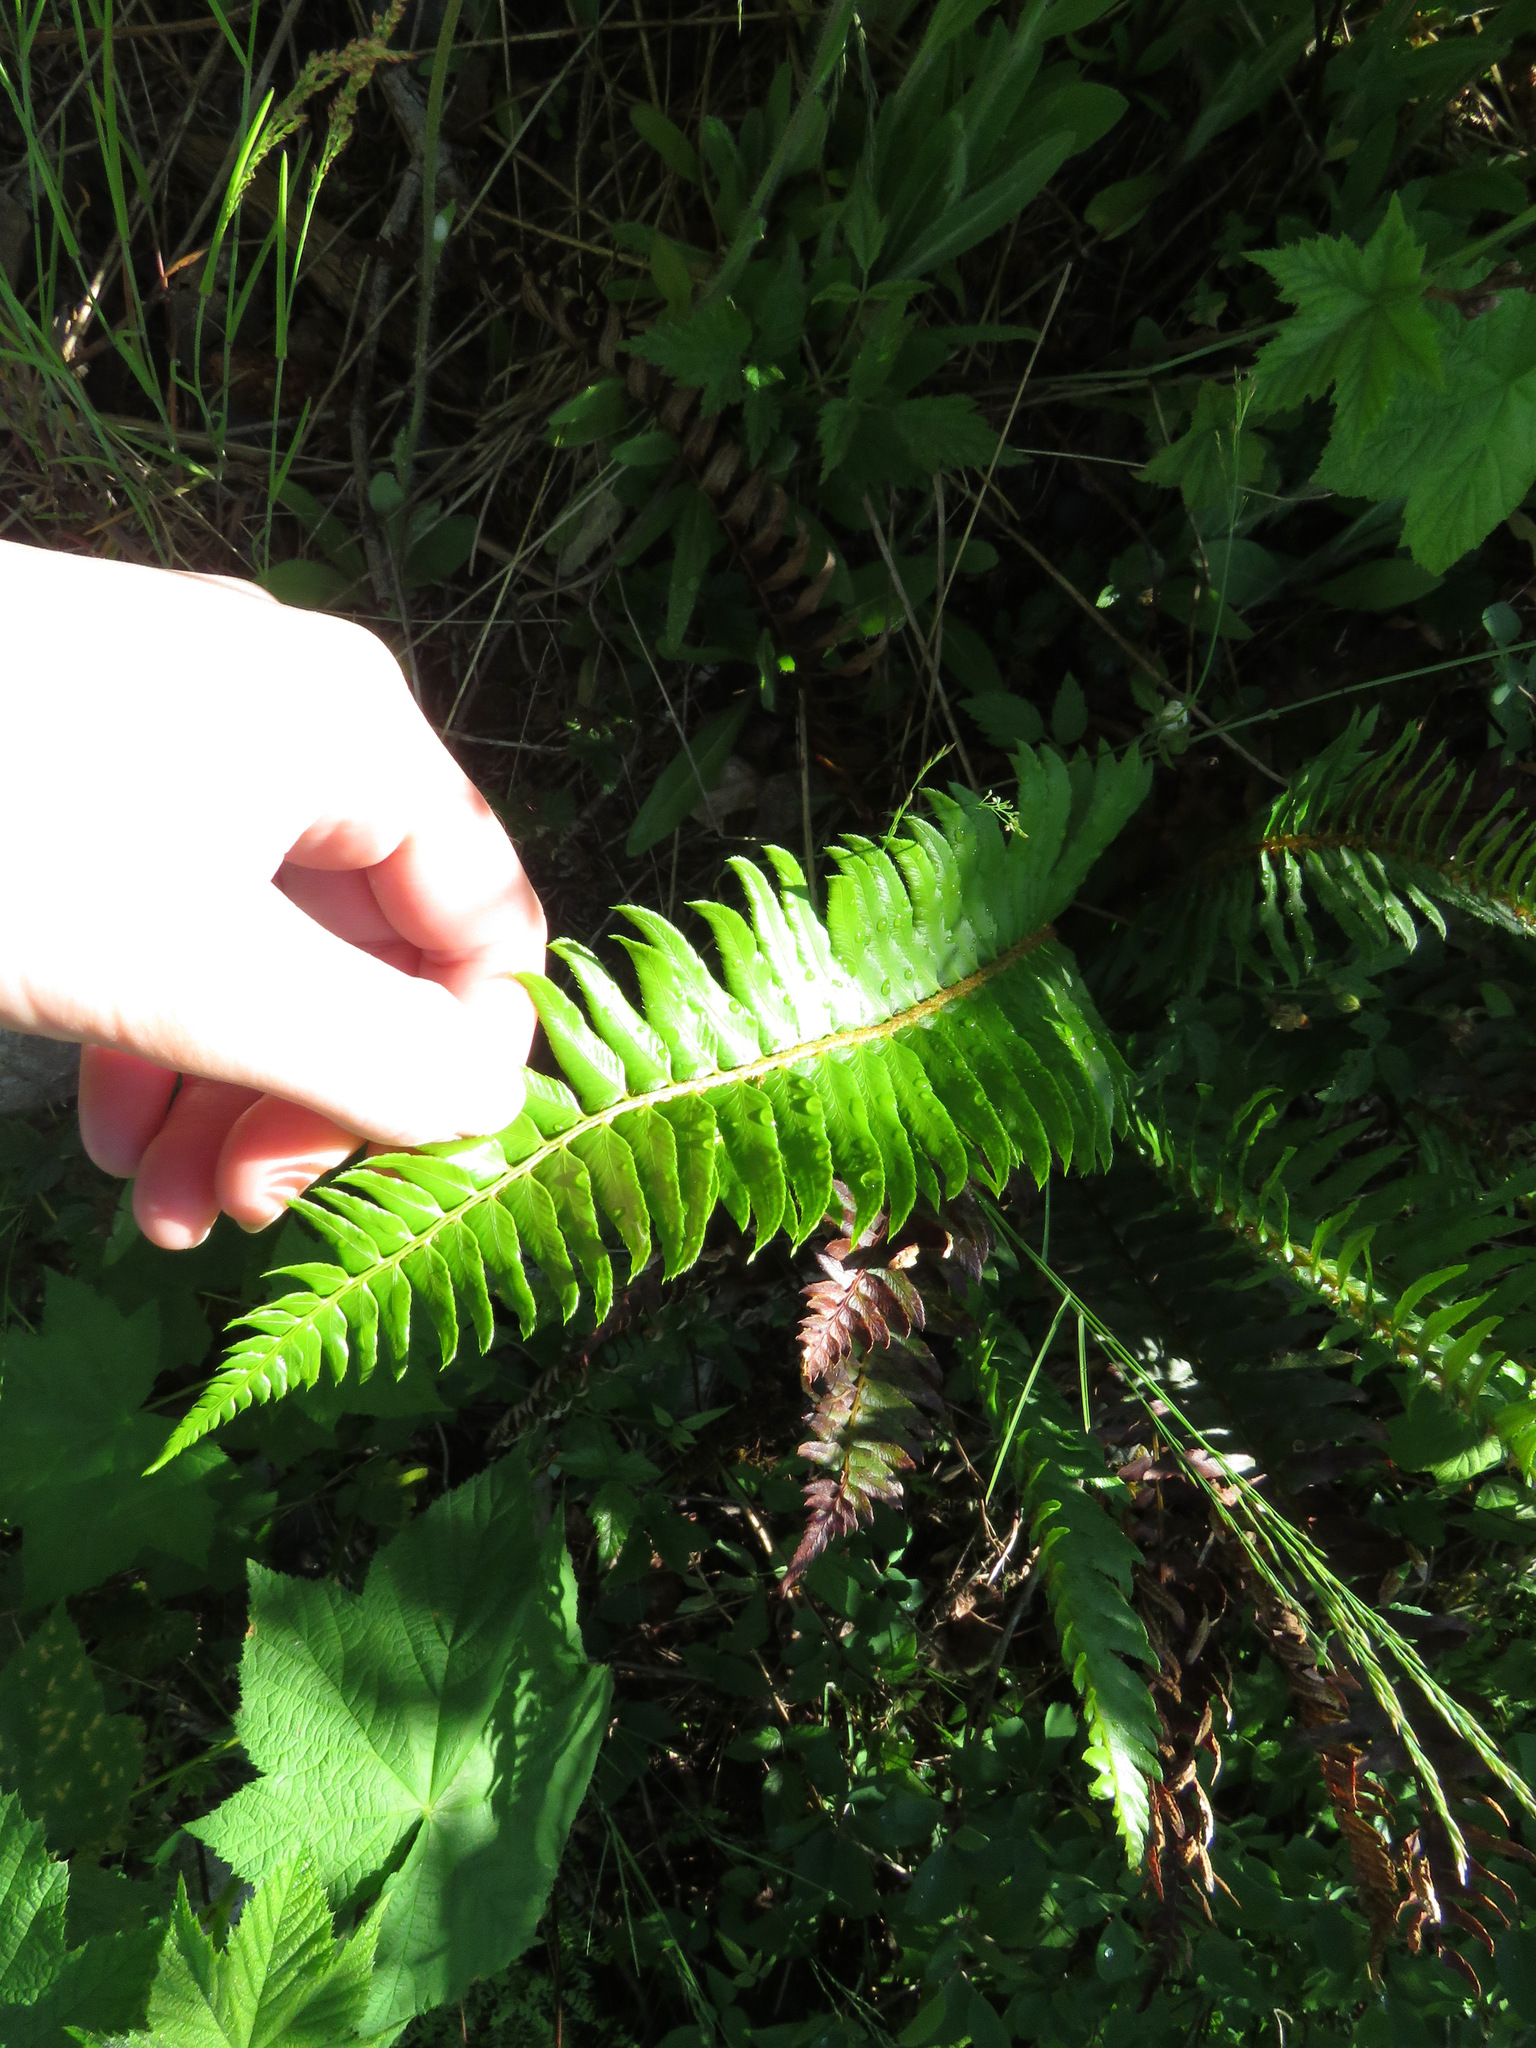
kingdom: Plantae
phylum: Tracheophyta
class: Polypodiopsida
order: Polypodiales
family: Dryopteridaceae
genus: Polystichum
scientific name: Polystichum munitum
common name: Western sword-fern
